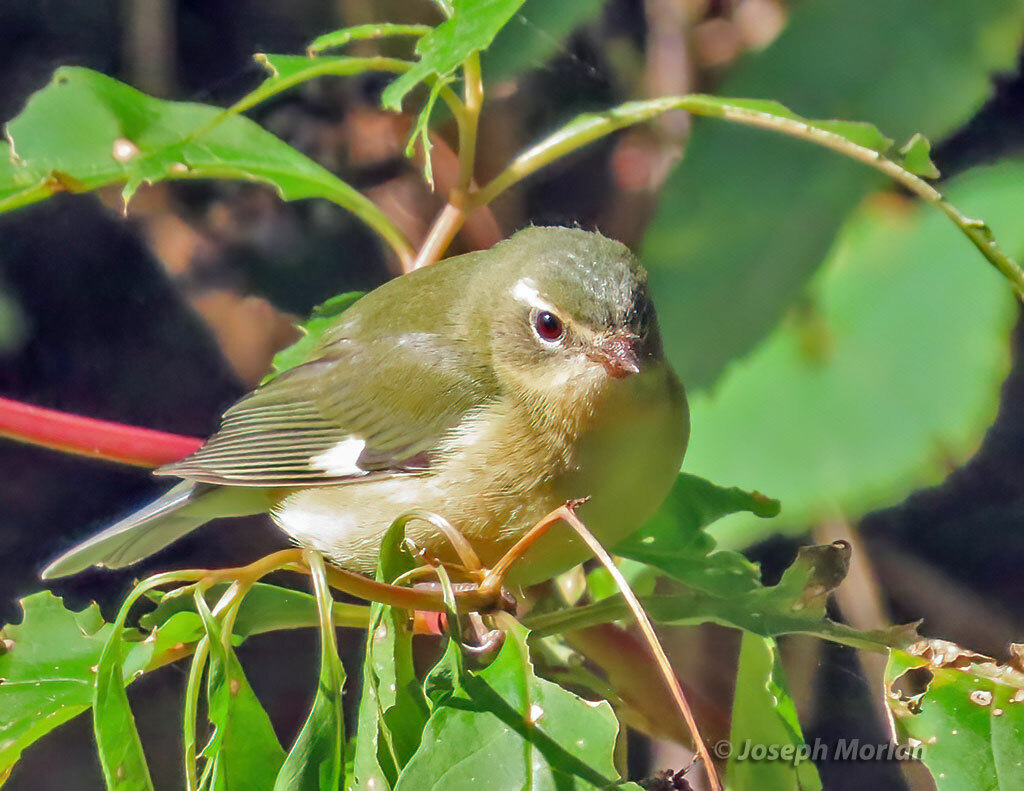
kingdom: Animalia
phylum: Chordata
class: Aves
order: Passeriformes
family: Parulidae
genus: Setophaga
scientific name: Setophaga caerulescens
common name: Black-throated blue warbler
